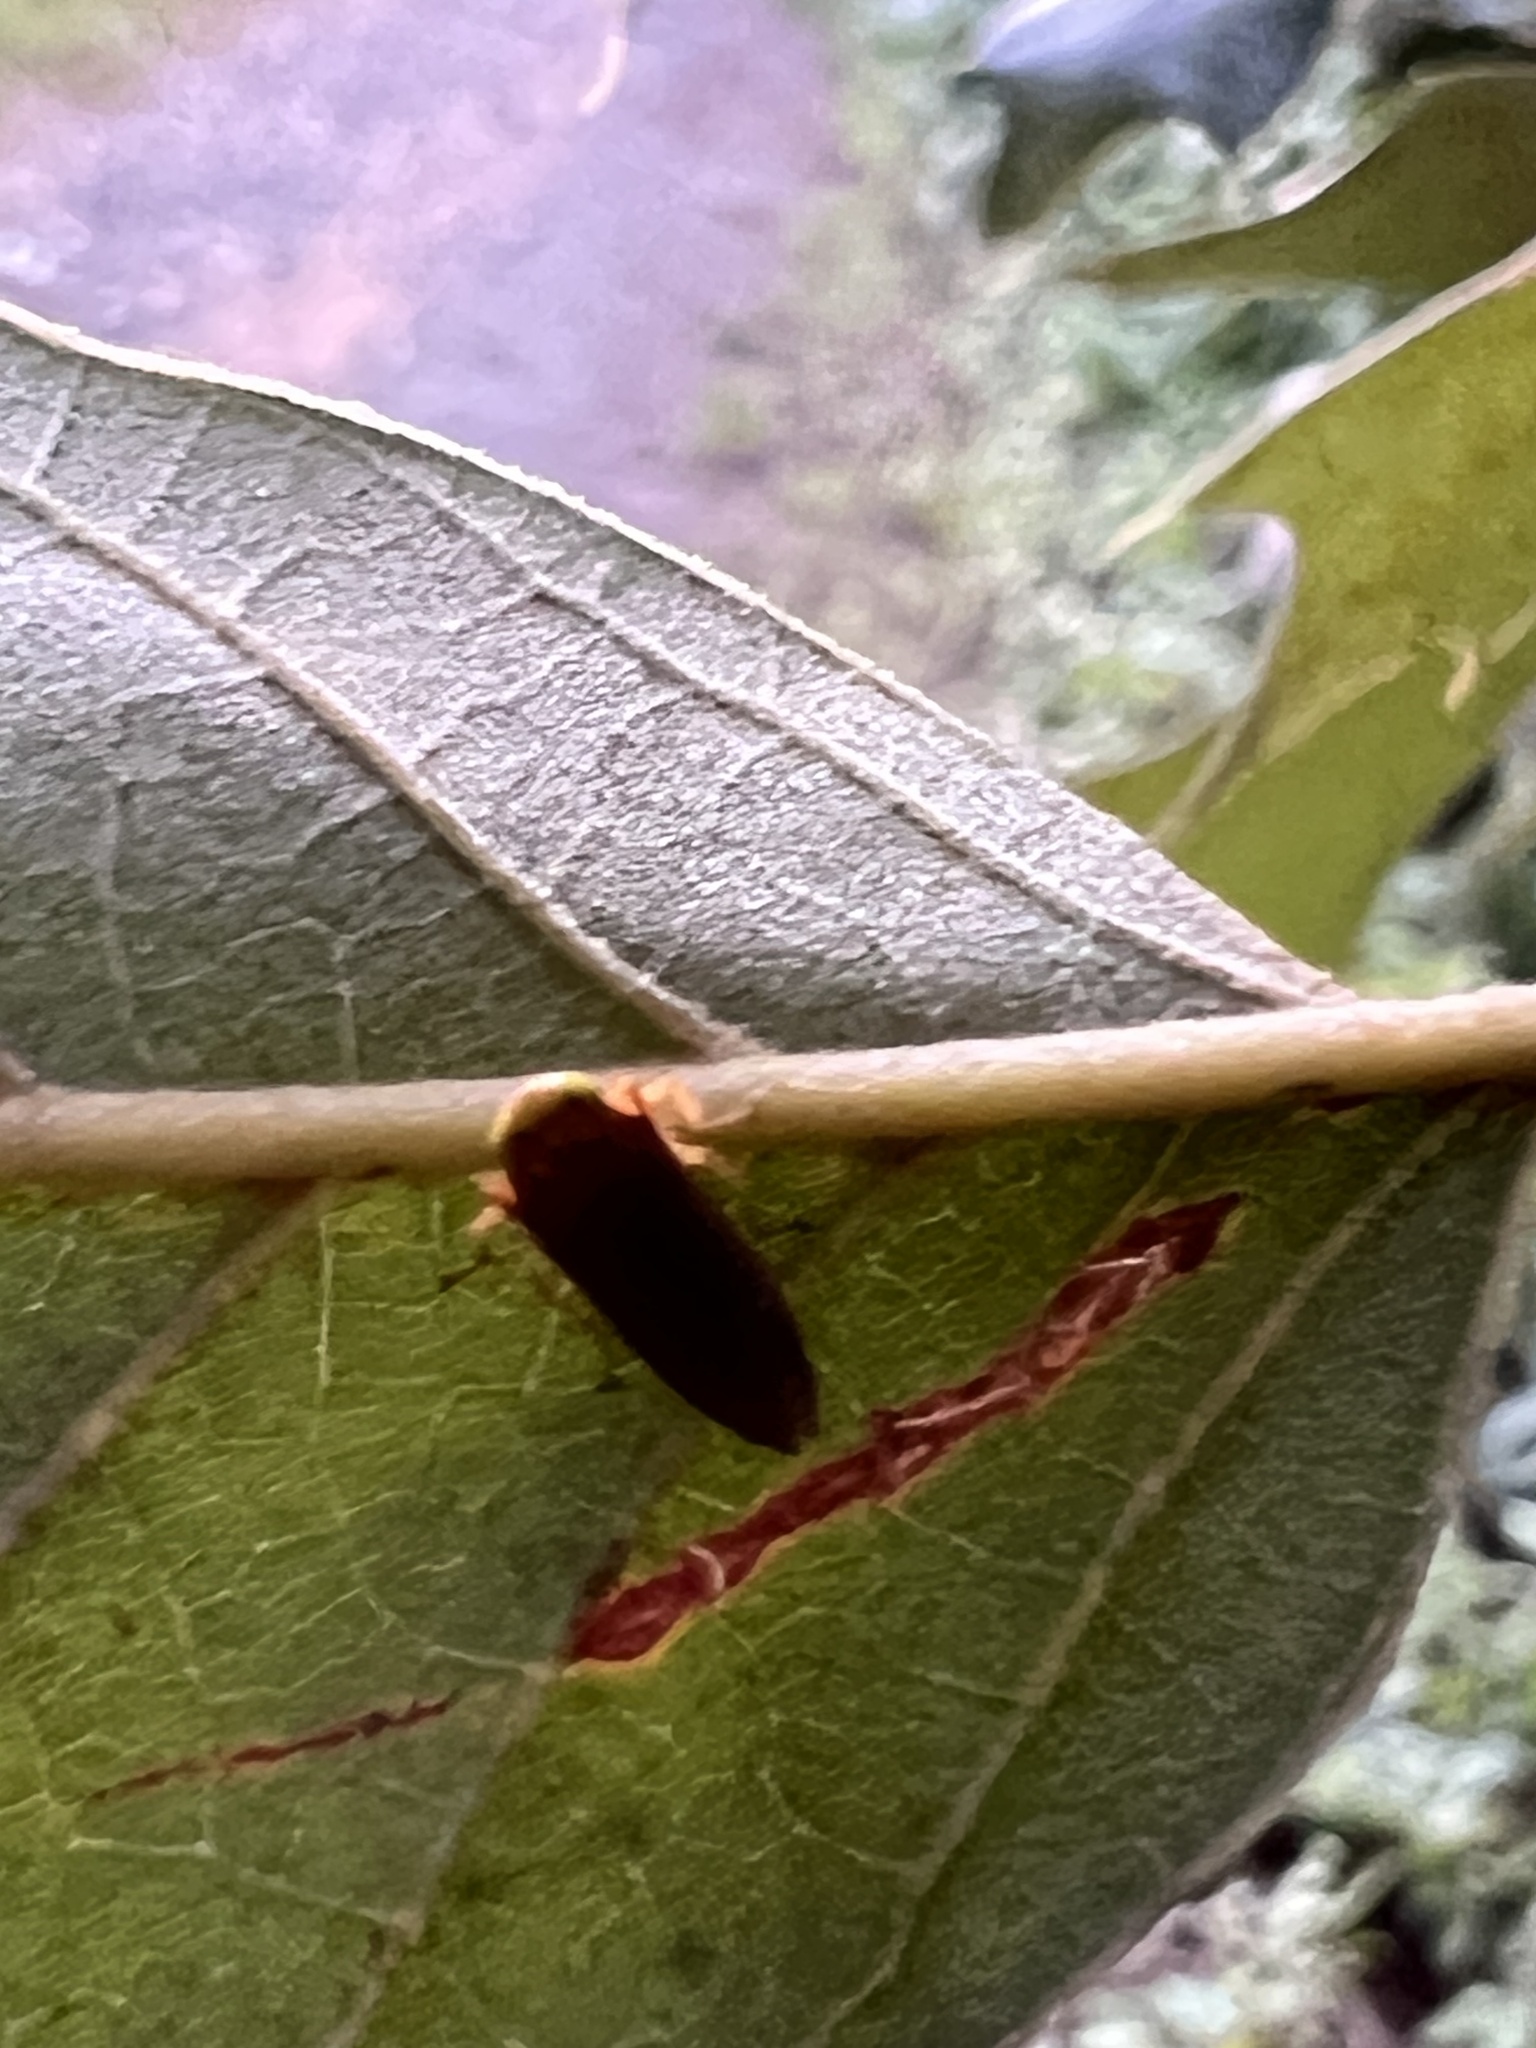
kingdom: Animalia
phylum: Arthropoda
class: Insecta
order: Hemiptera
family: Cicadellidae
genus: Jikradia
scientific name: Jikradia olitoria
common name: Coppery leafhopper
